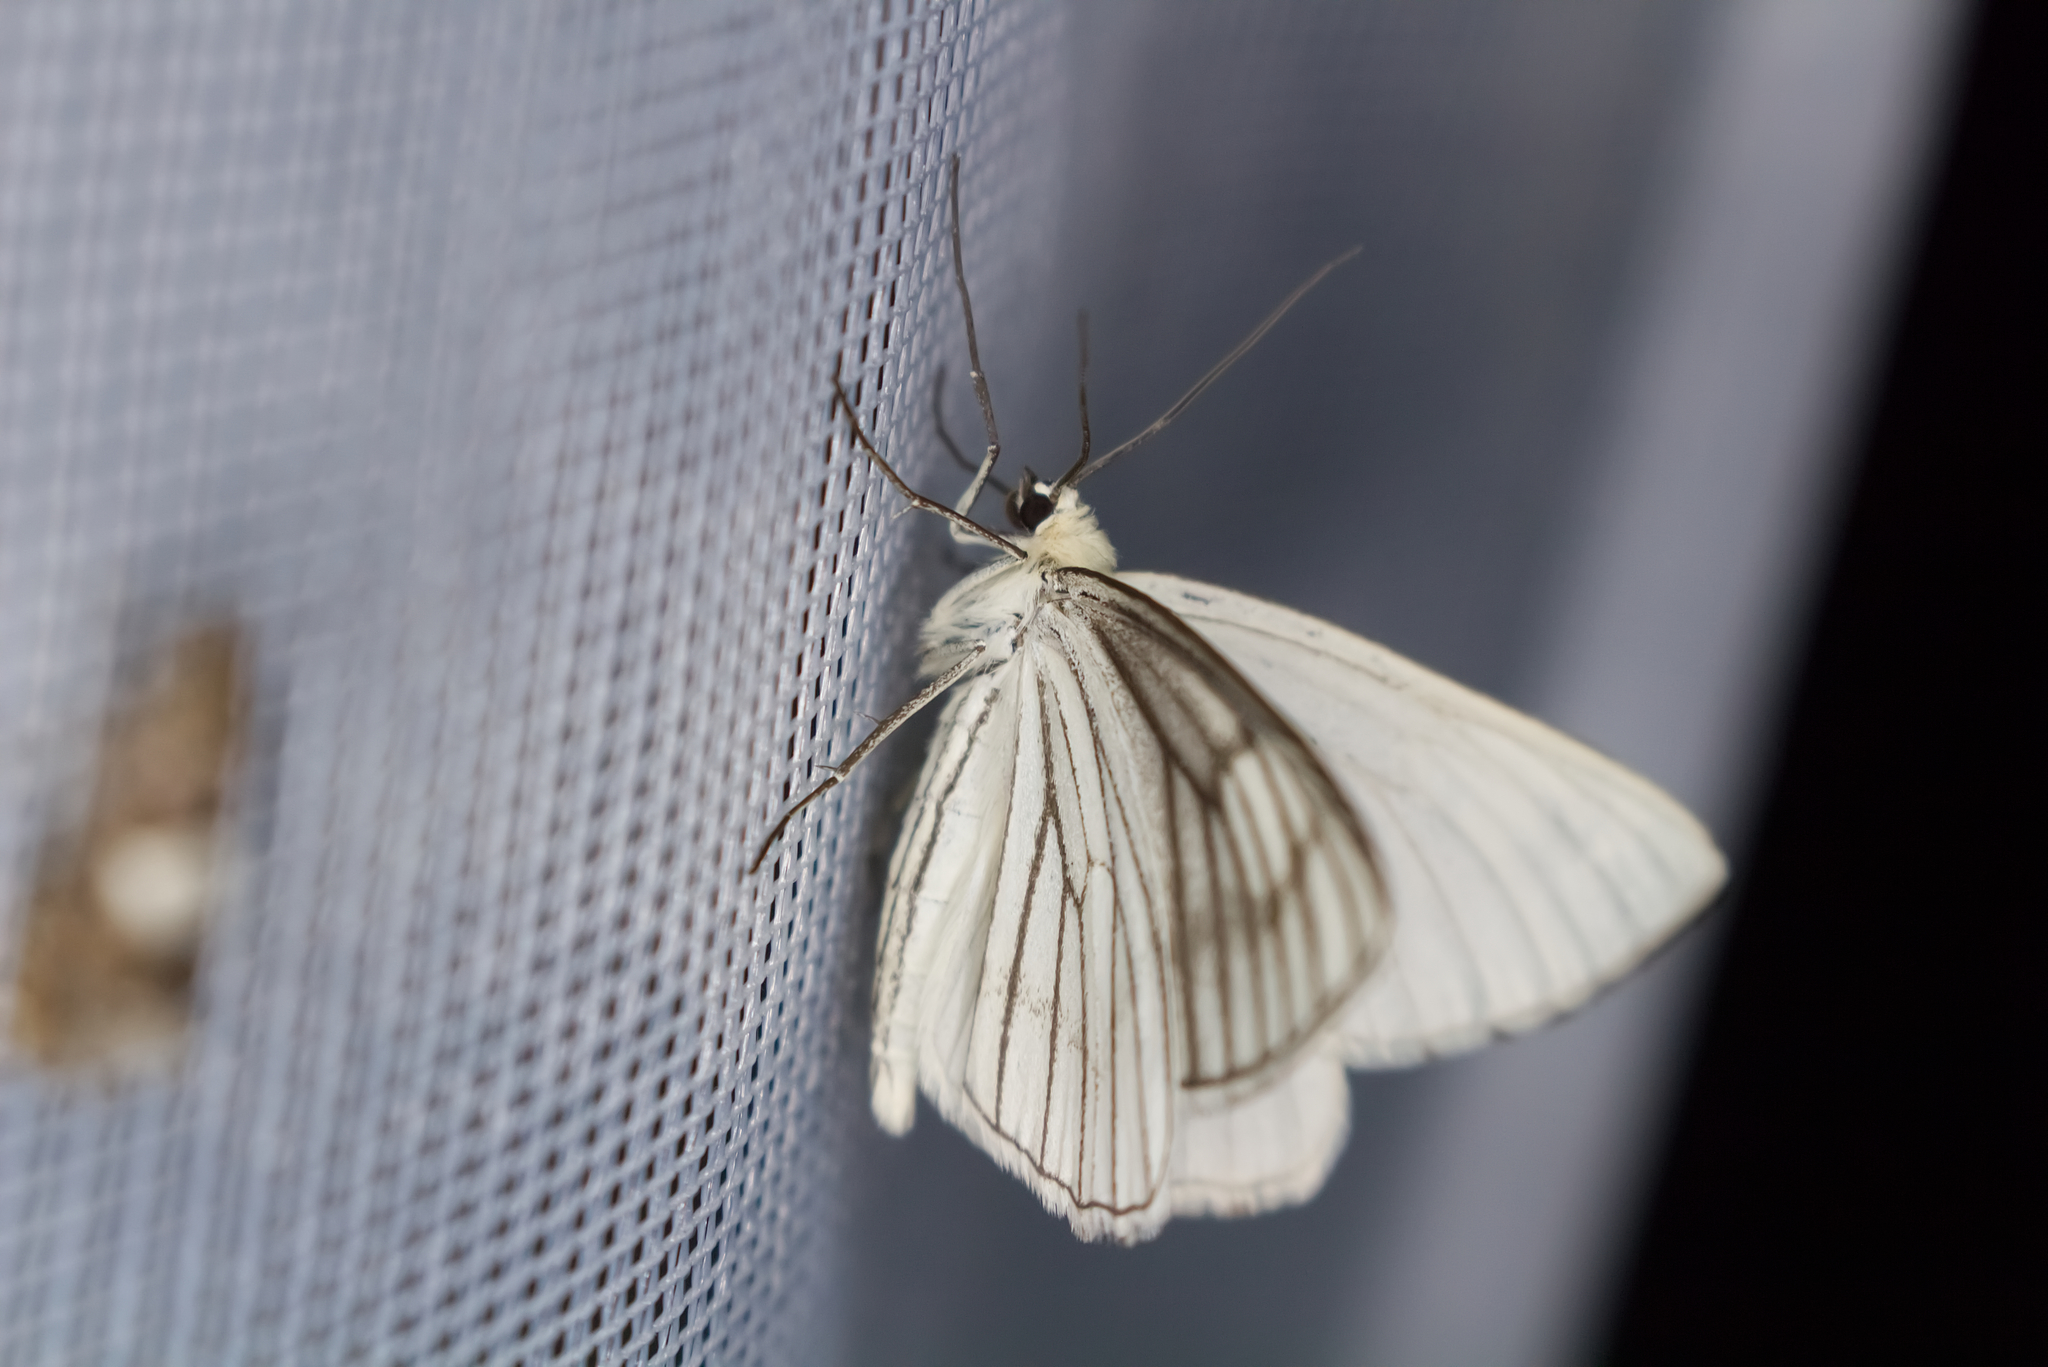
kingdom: Animalia
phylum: Arthropoda
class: Insecta
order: Lepidoptera
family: Geometridae
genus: Siona
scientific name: Siona lineata
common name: Black-veined moth
